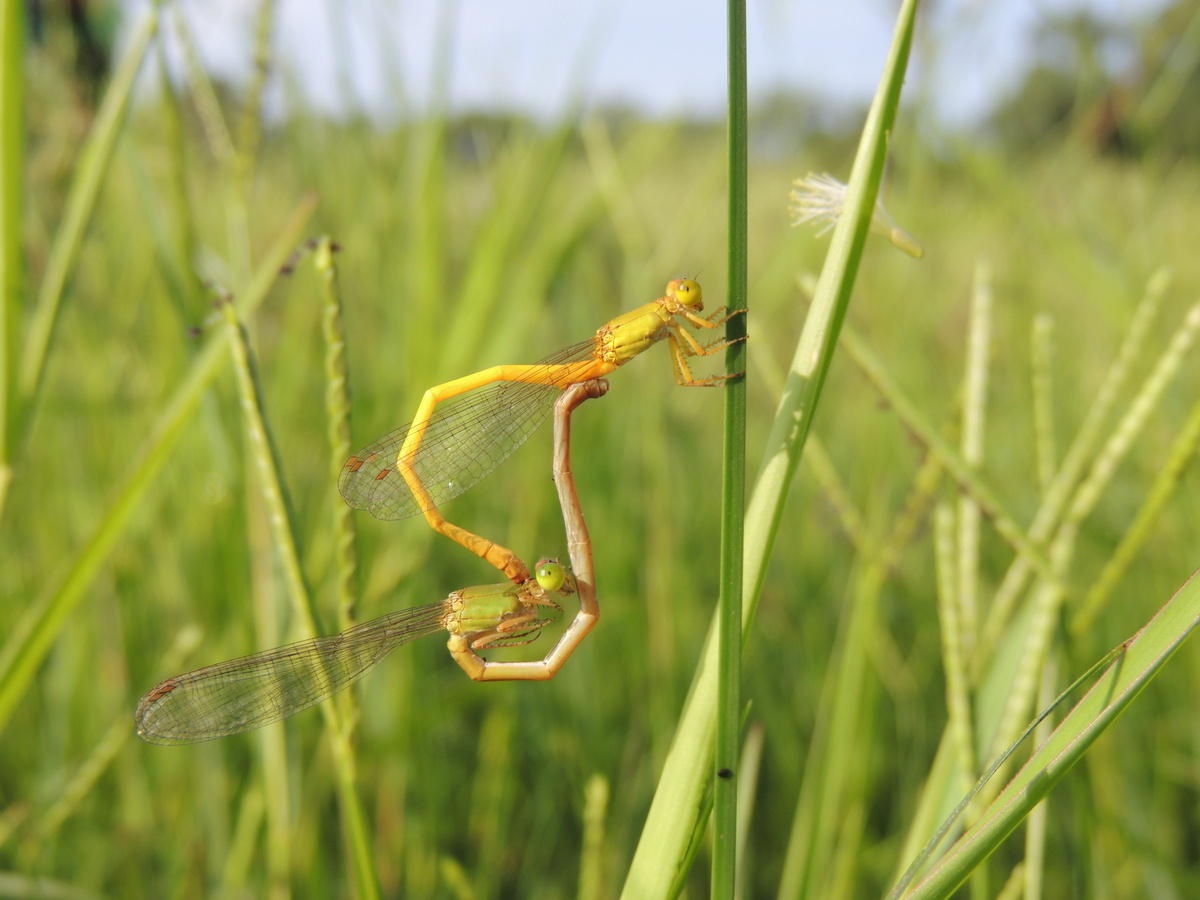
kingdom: Animalia
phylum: Arthropoda
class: Insecta
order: Odonata
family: Coenagrionidae
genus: Ceriagrion
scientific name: Ceriagrion coromandelianum
